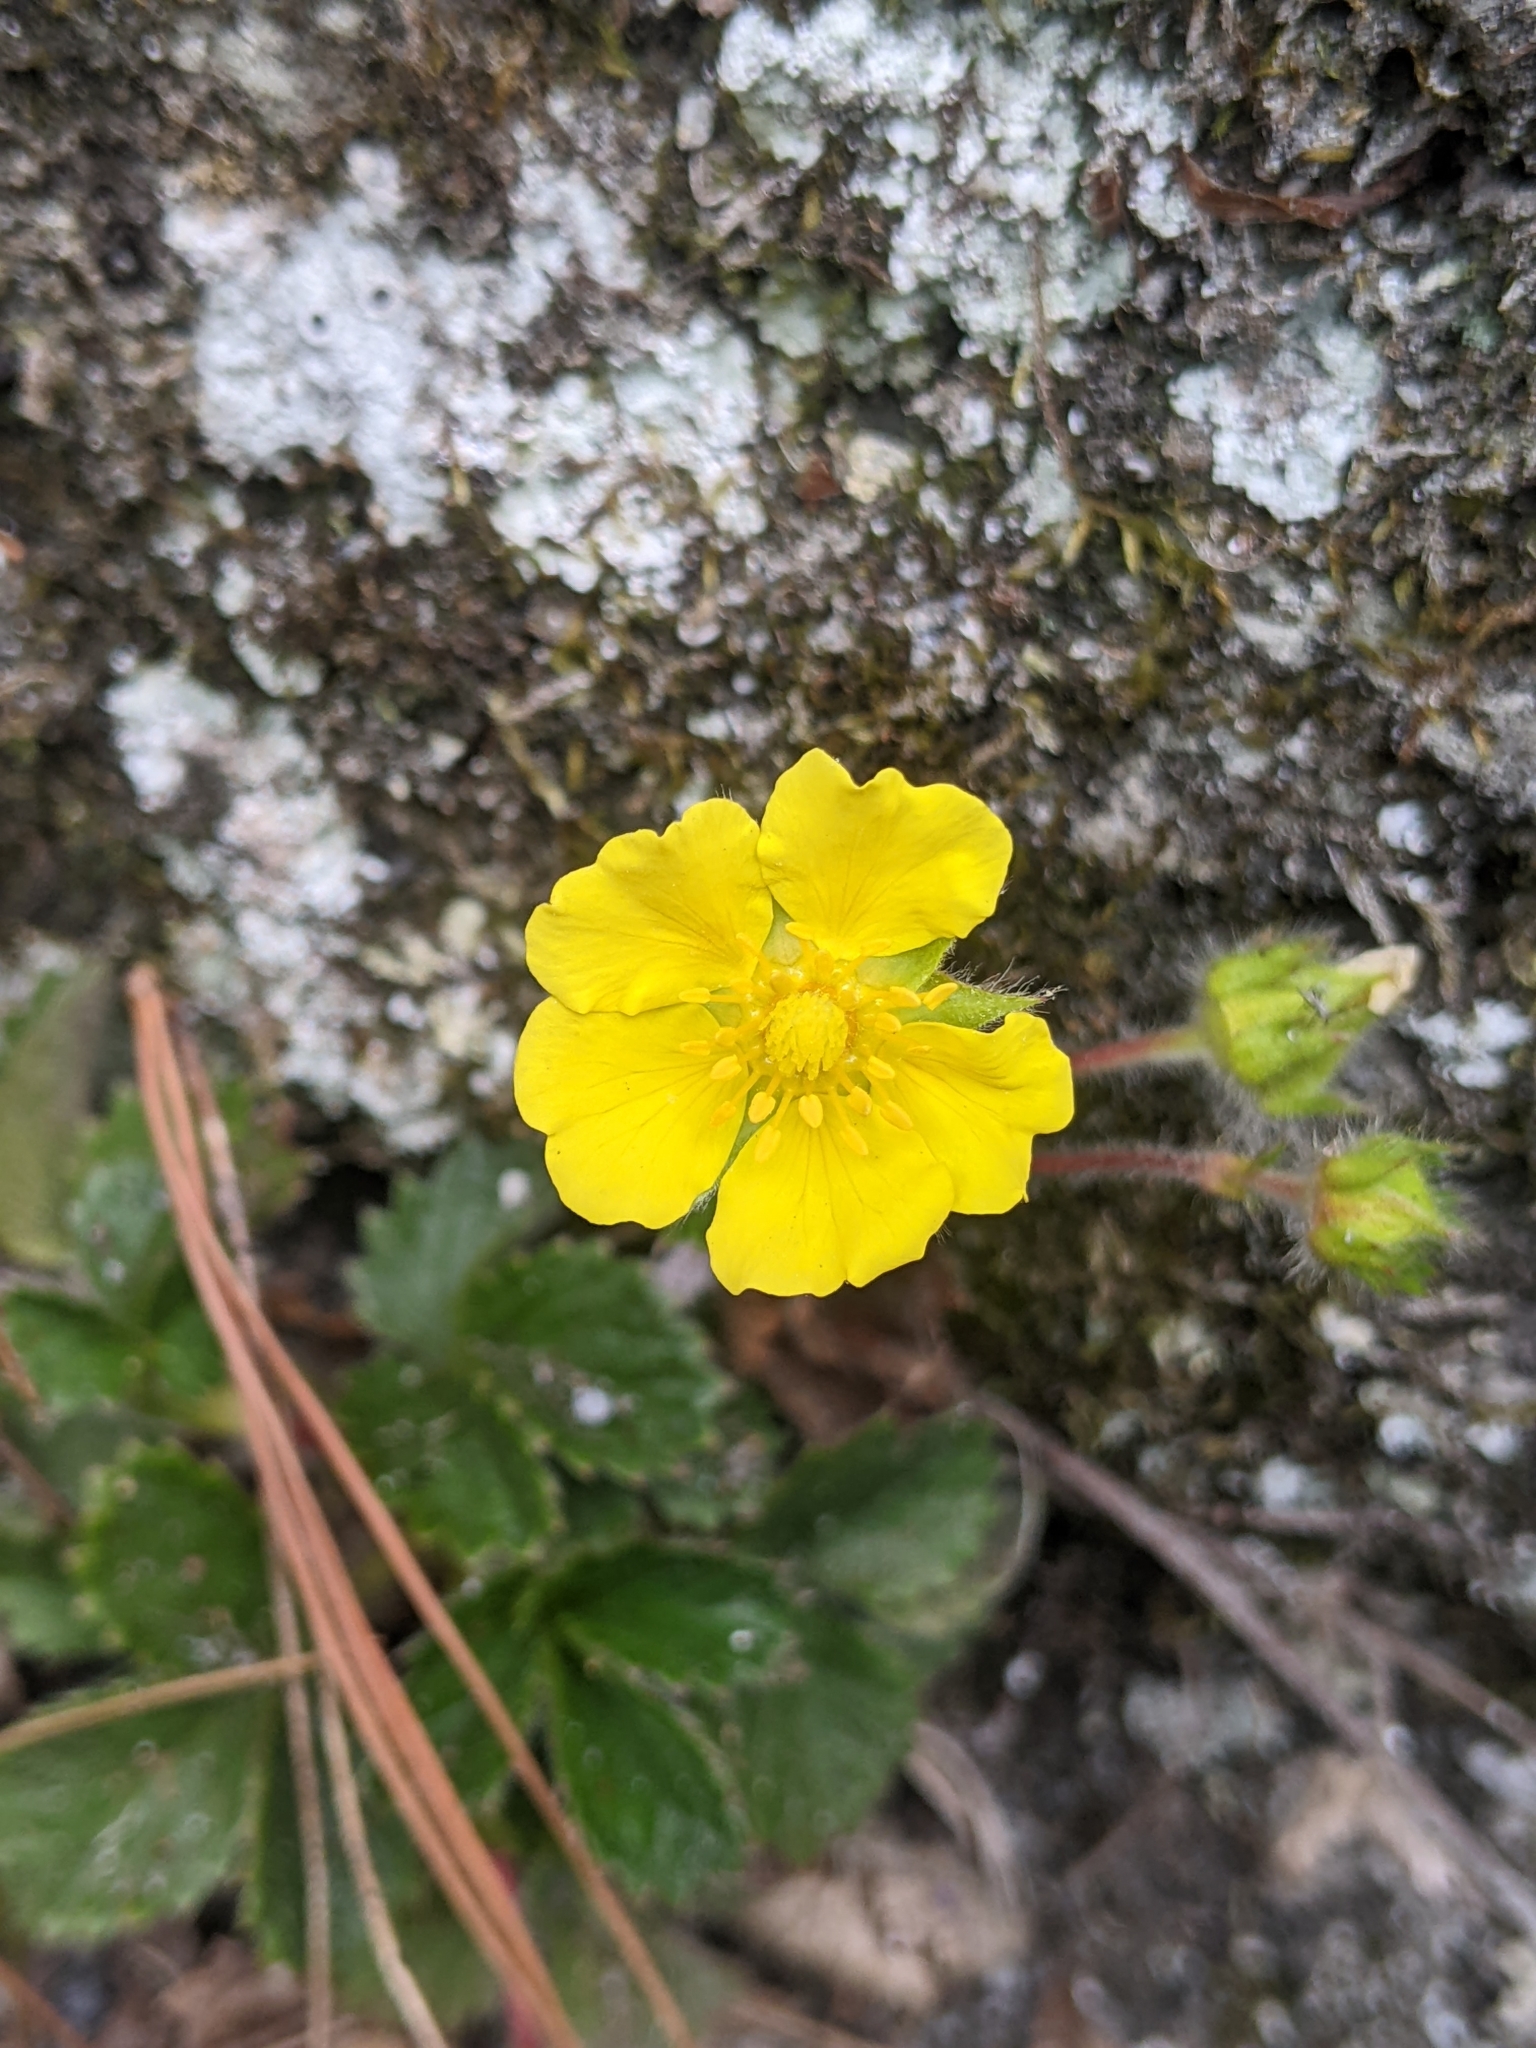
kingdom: Plantae
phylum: Tracheophyta
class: Magnoliopsida
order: Rosales
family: Rosaceae
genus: Potentilla
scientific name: Potentilla matsumurae
